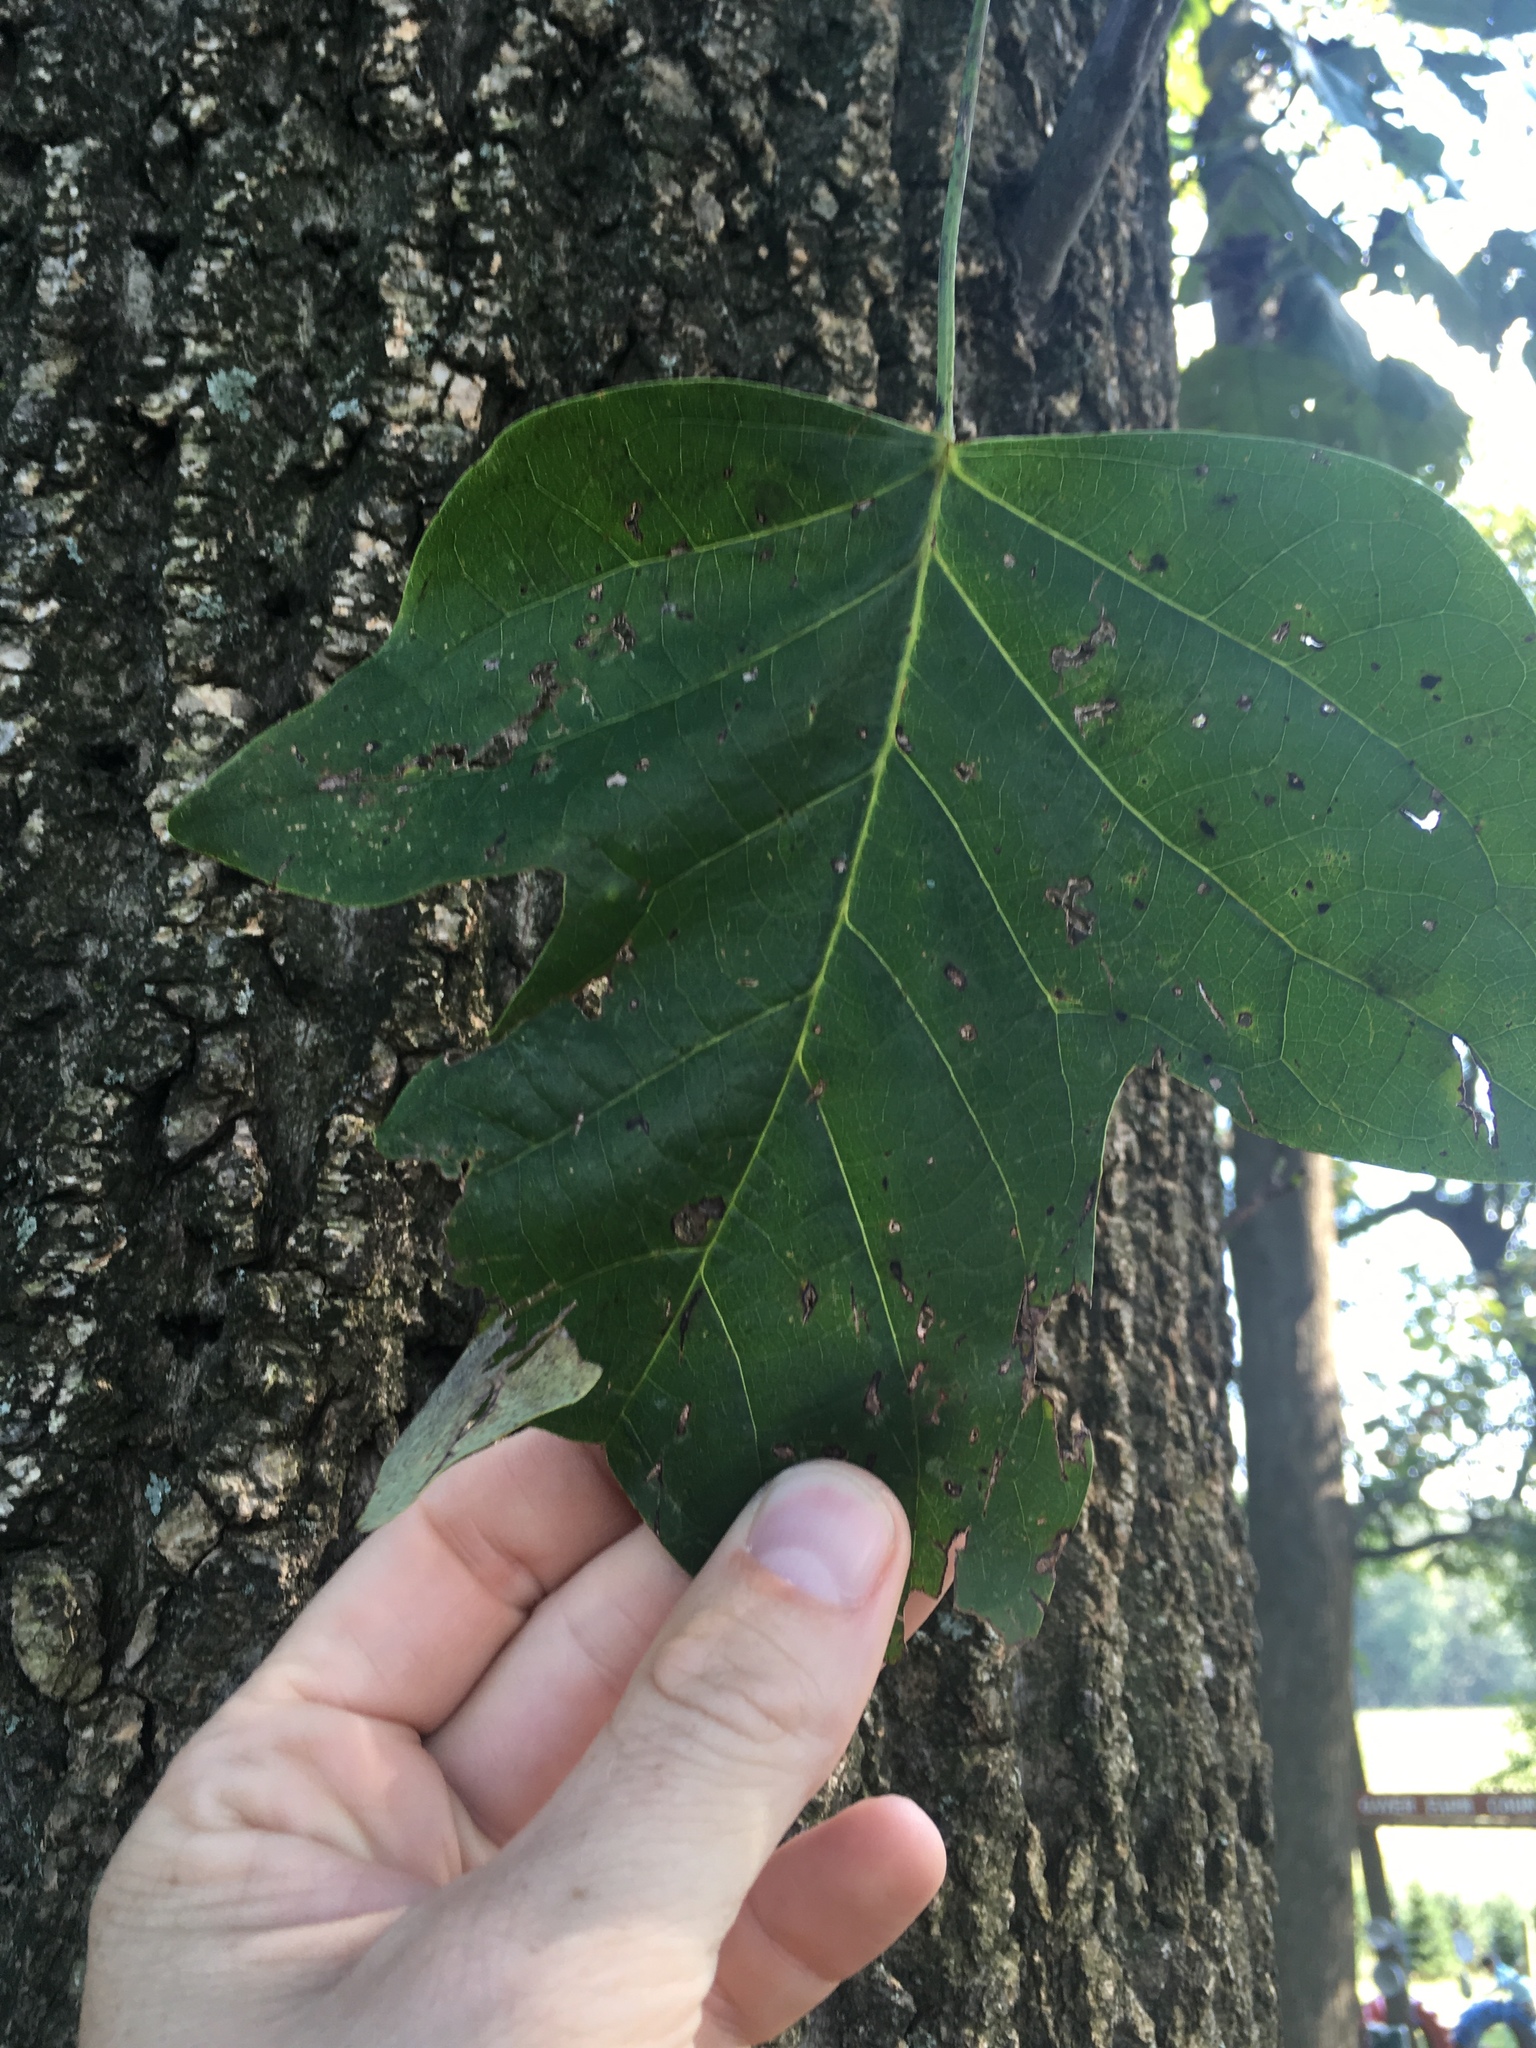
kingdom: Plantae
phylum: Tracheophyta
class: Magnoliopsida
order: Magnoliales
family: Magnoliaceae
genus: Liriodendron
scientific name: Liriodendron tulipifera
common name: Tulip tree
